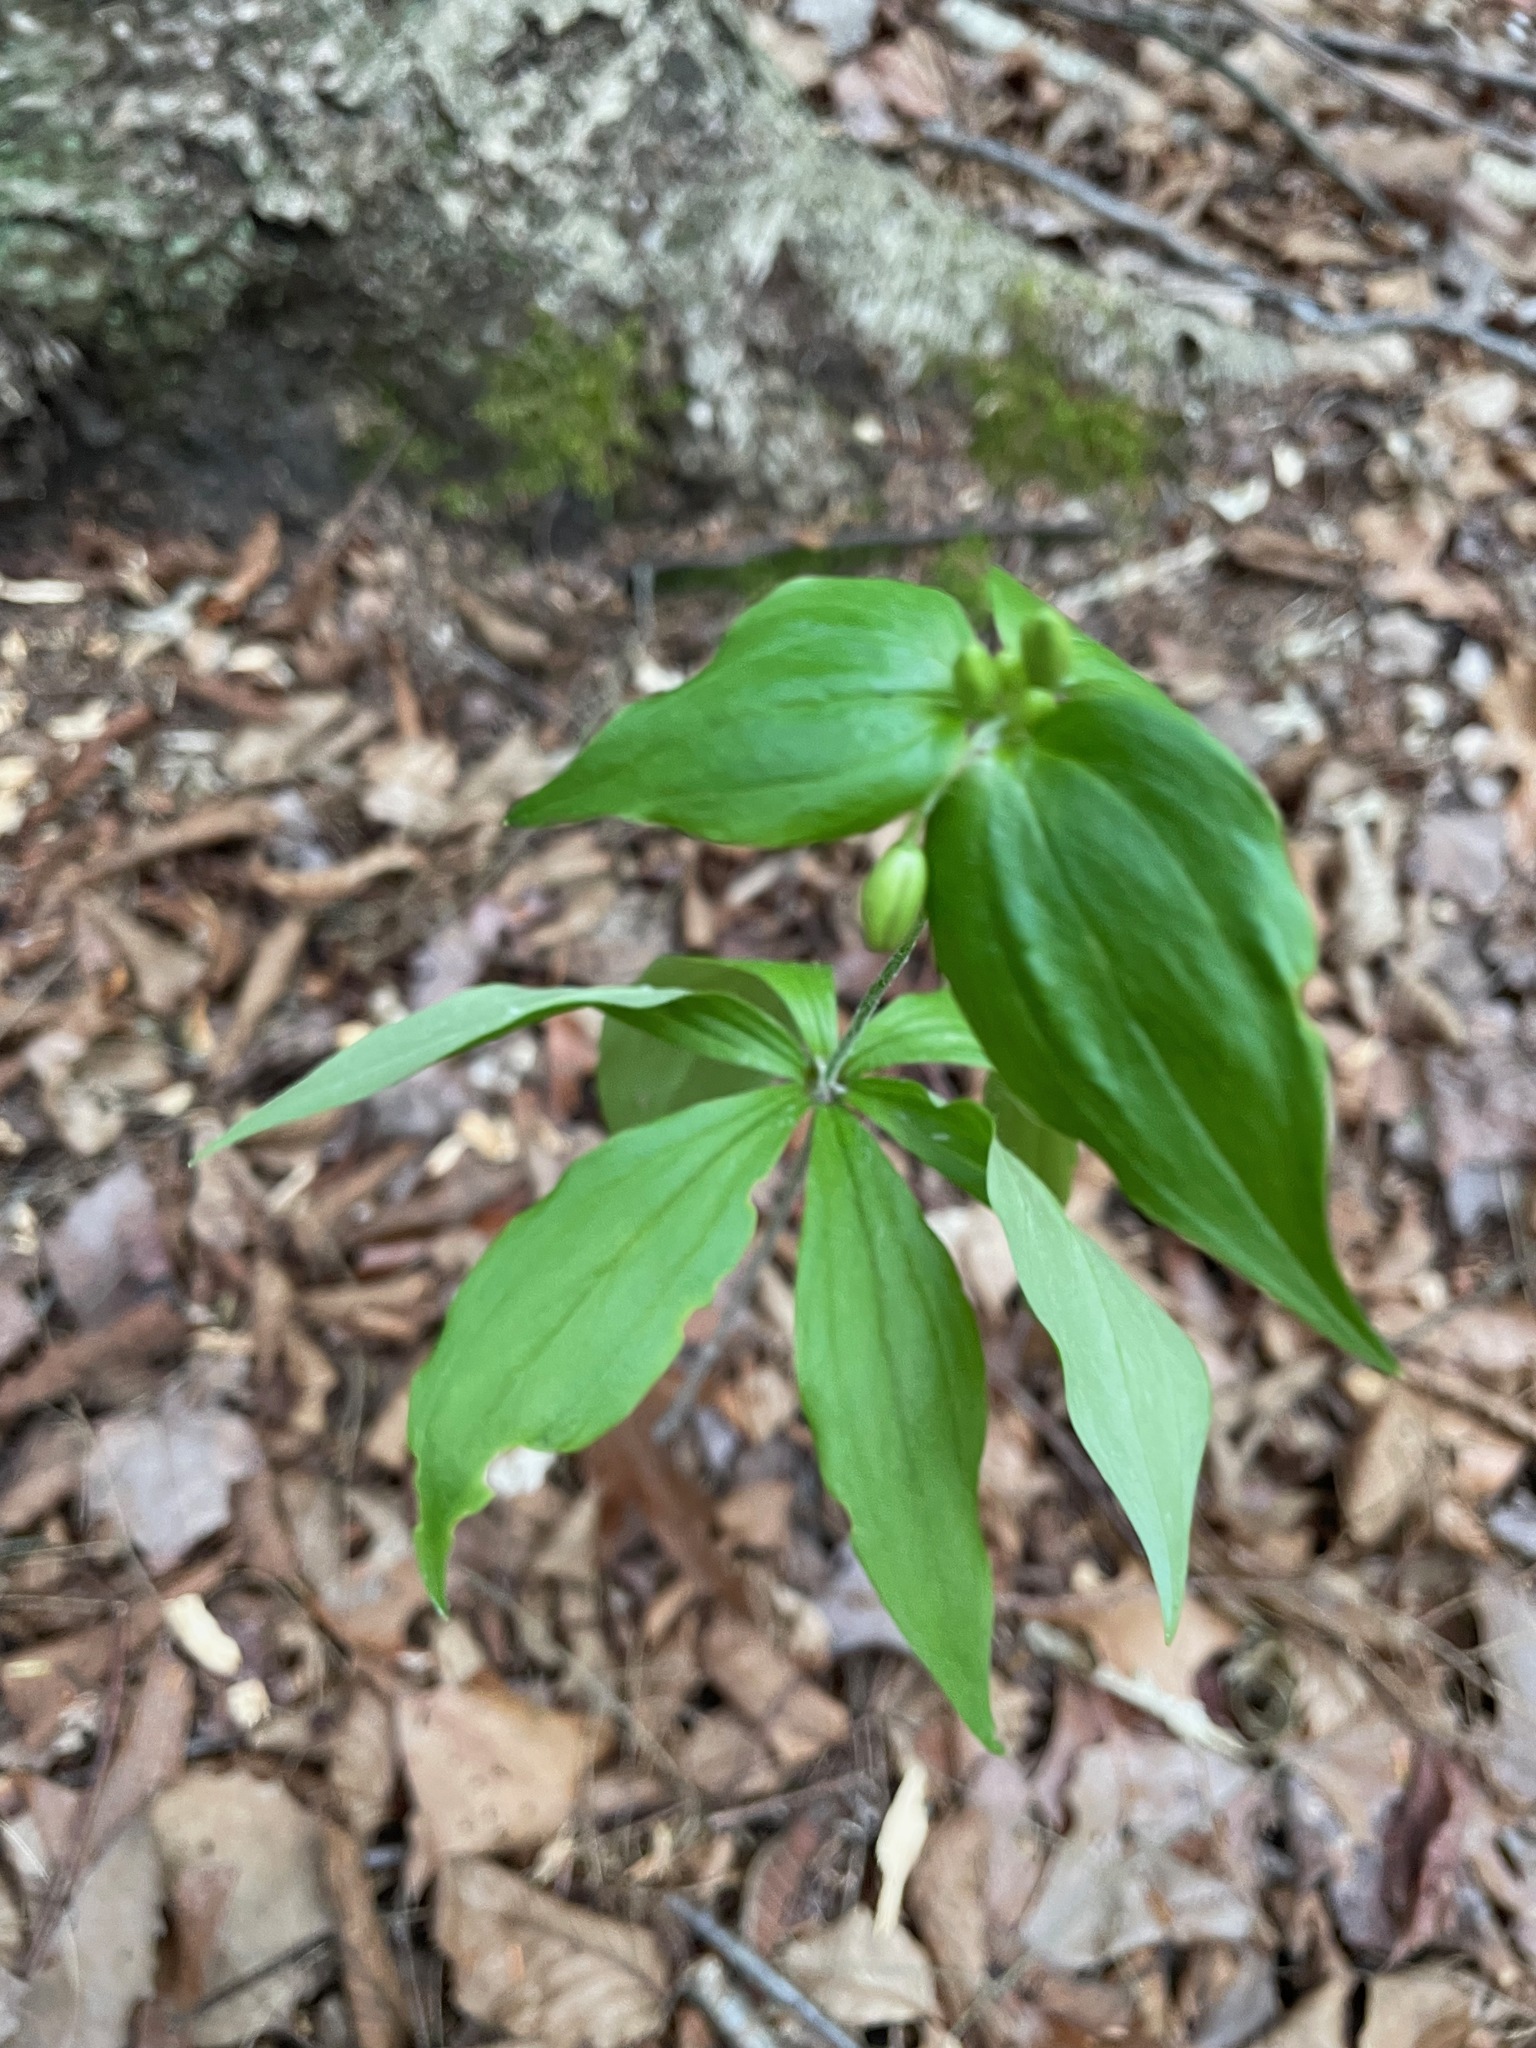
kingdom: Plantae
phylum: Tracheophyta
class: Liliopsida
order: Liliales
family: Liliaceae
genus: Medeola
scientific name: Medeola virginiana
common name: Indian cucumber-root
